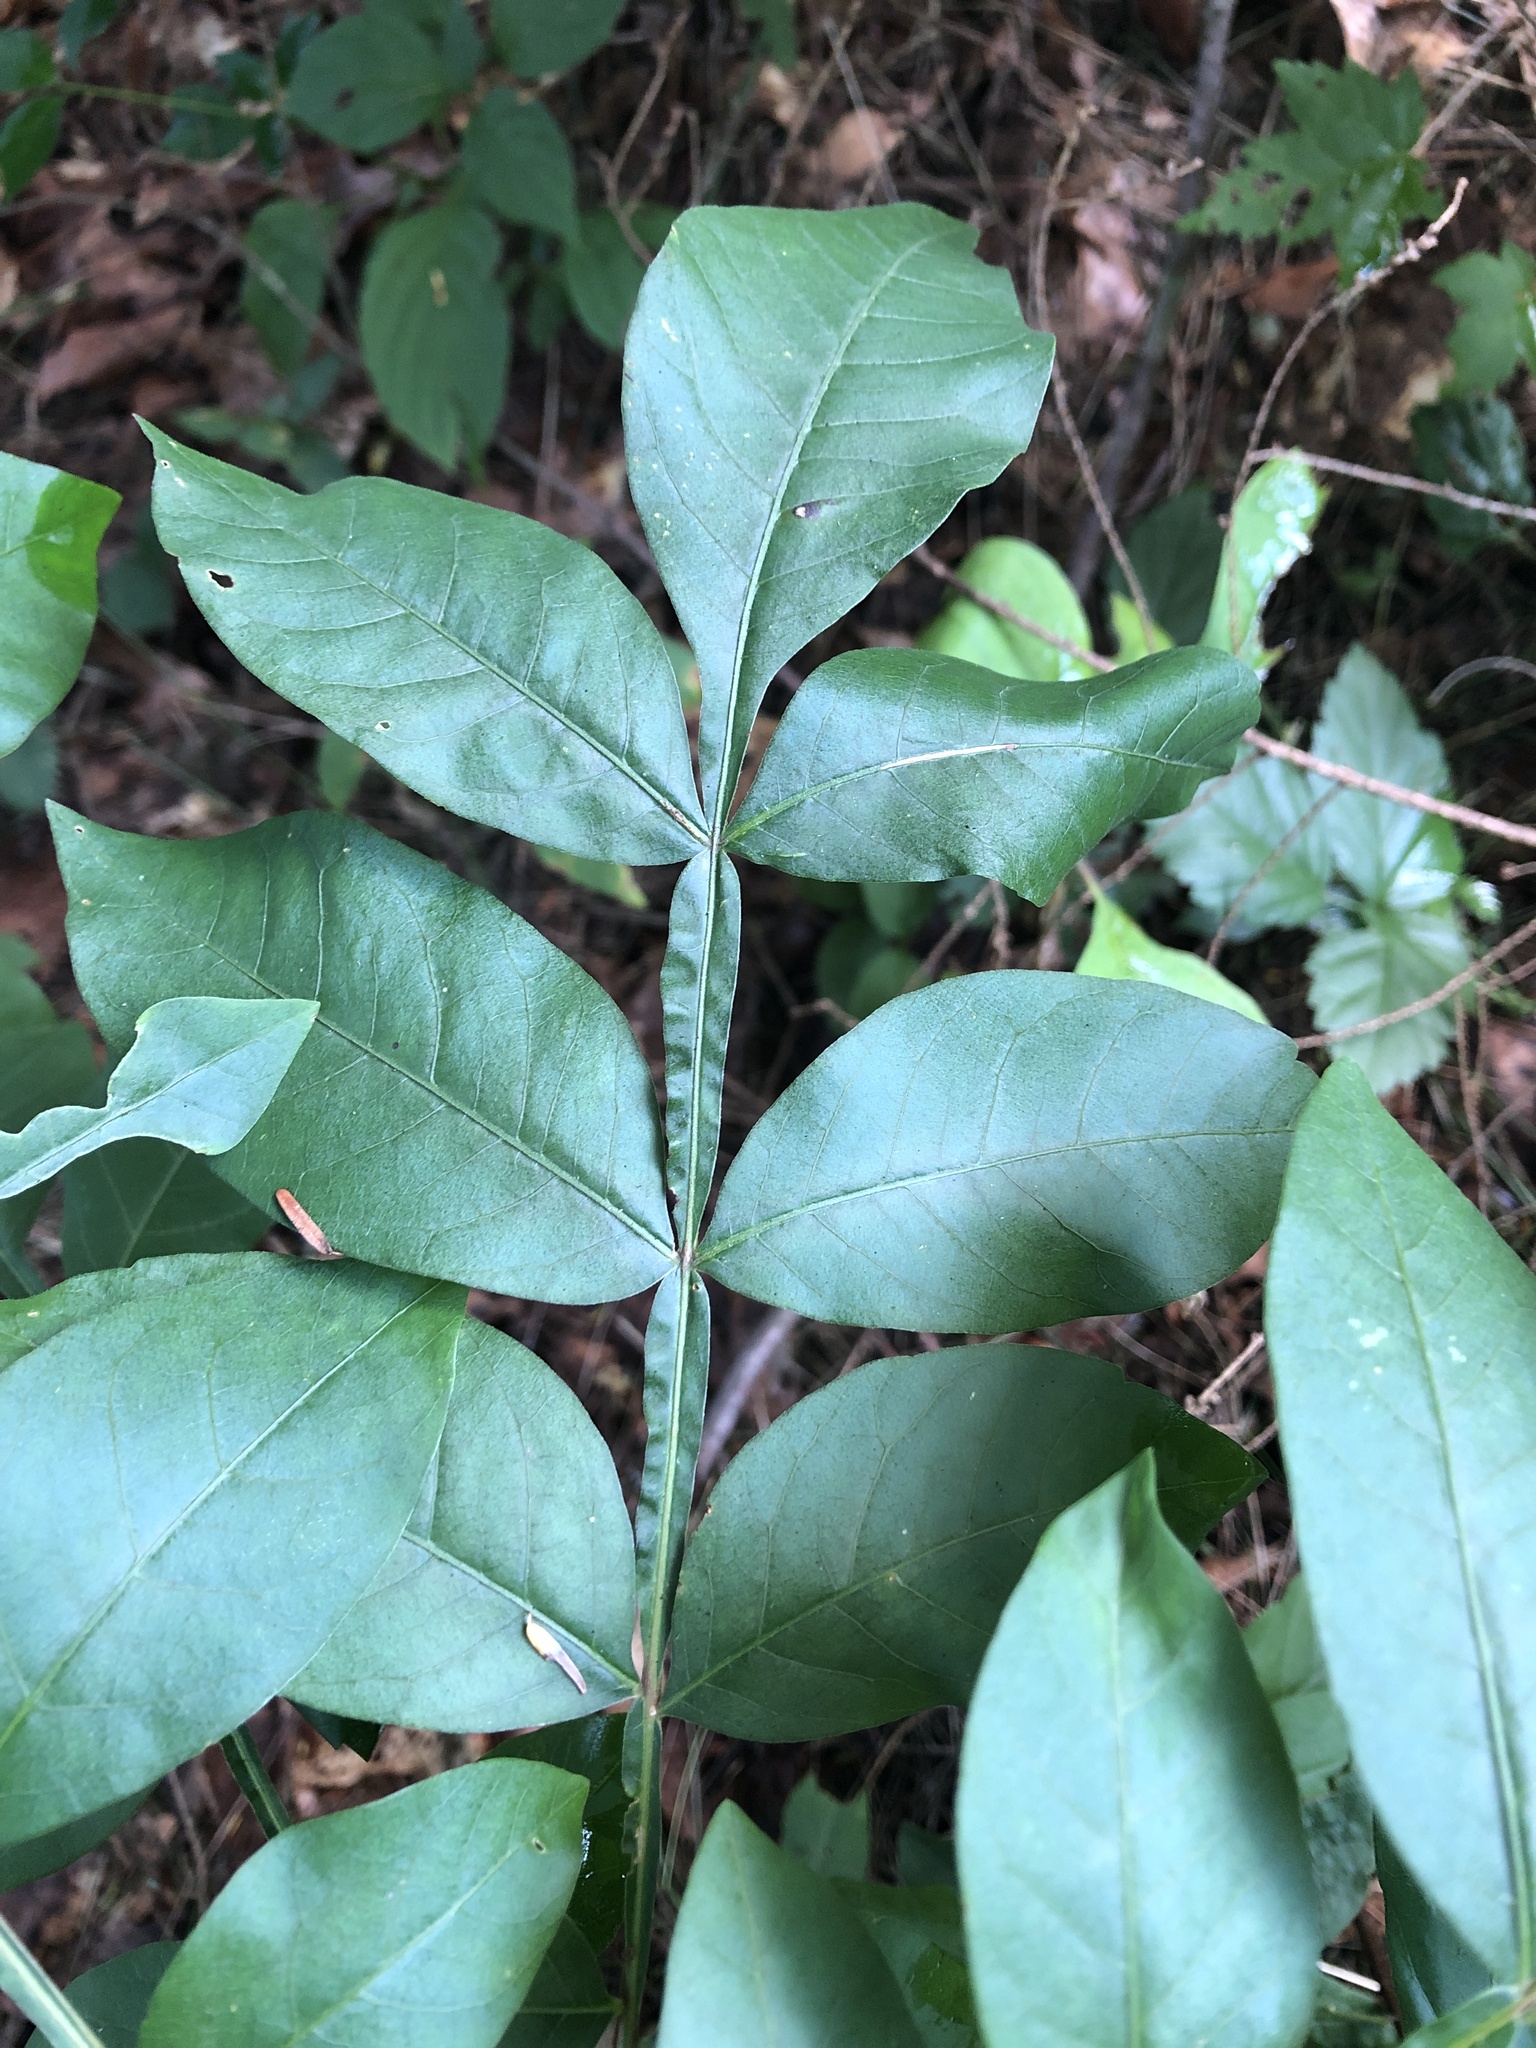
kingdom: Plantae
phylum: Tracheophyta
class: Magnoliopsida
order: Sapindales
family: Anacardiaceae
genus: Rhus
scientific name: Rhus copallina
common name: Shining sumac
